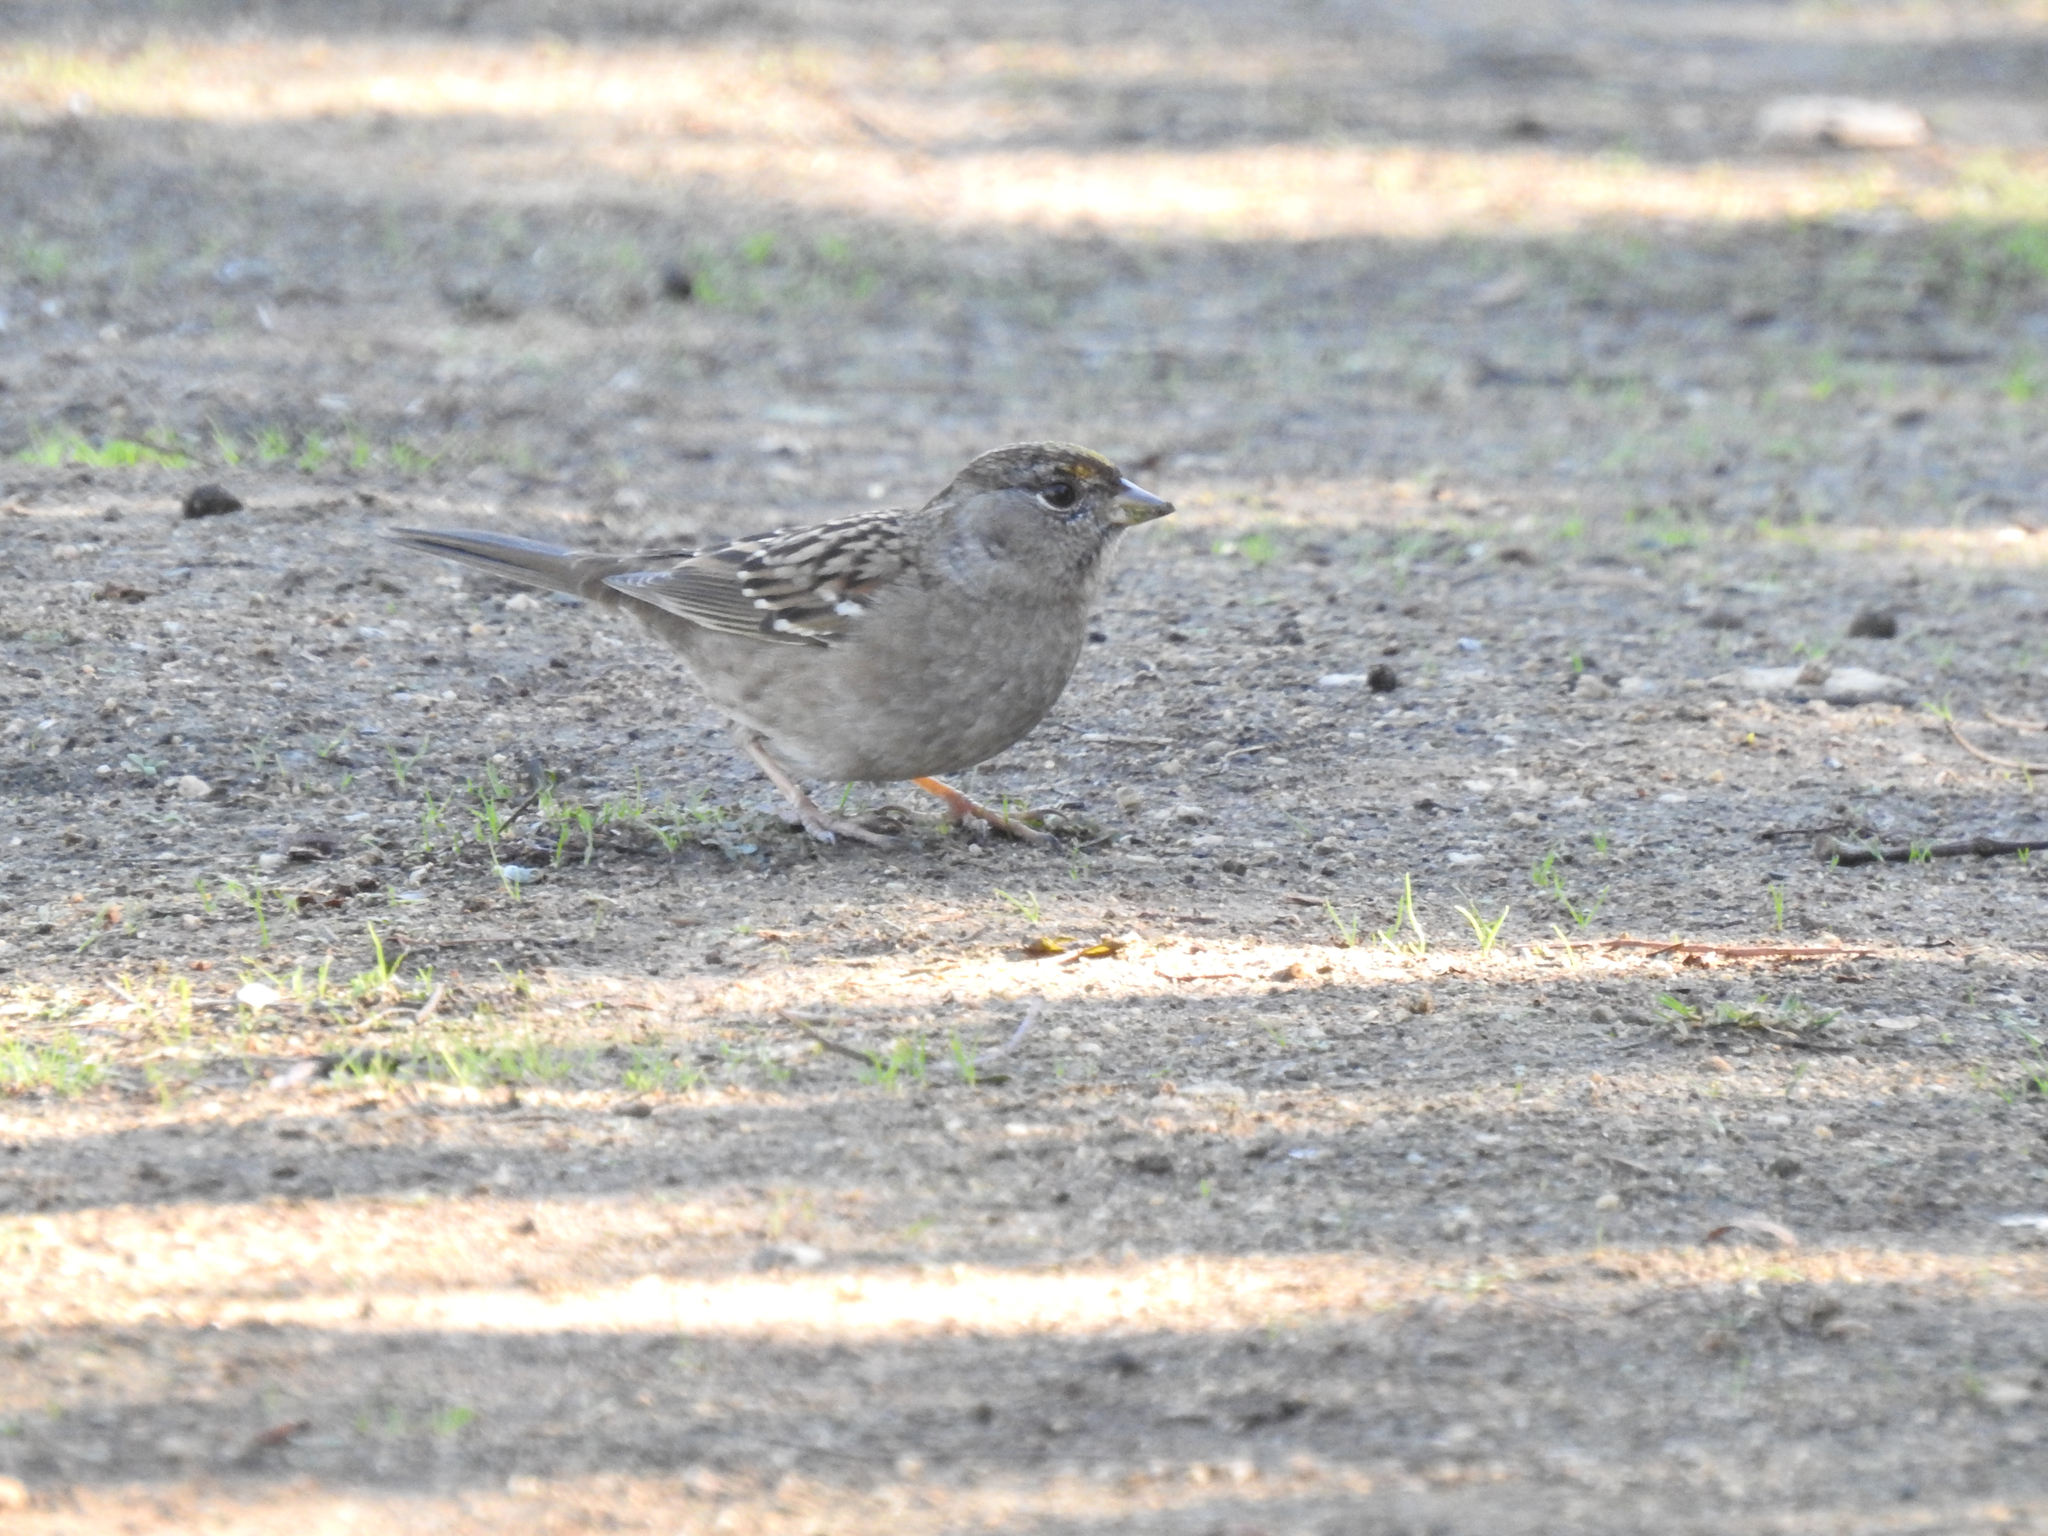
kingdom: Animalia
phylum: Chordata
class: Aves
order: Passeriformes
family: Passerellidae
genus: Zonotrichia
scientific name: Zonotrichia atricapilla
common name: Golden-crowned sparrow
